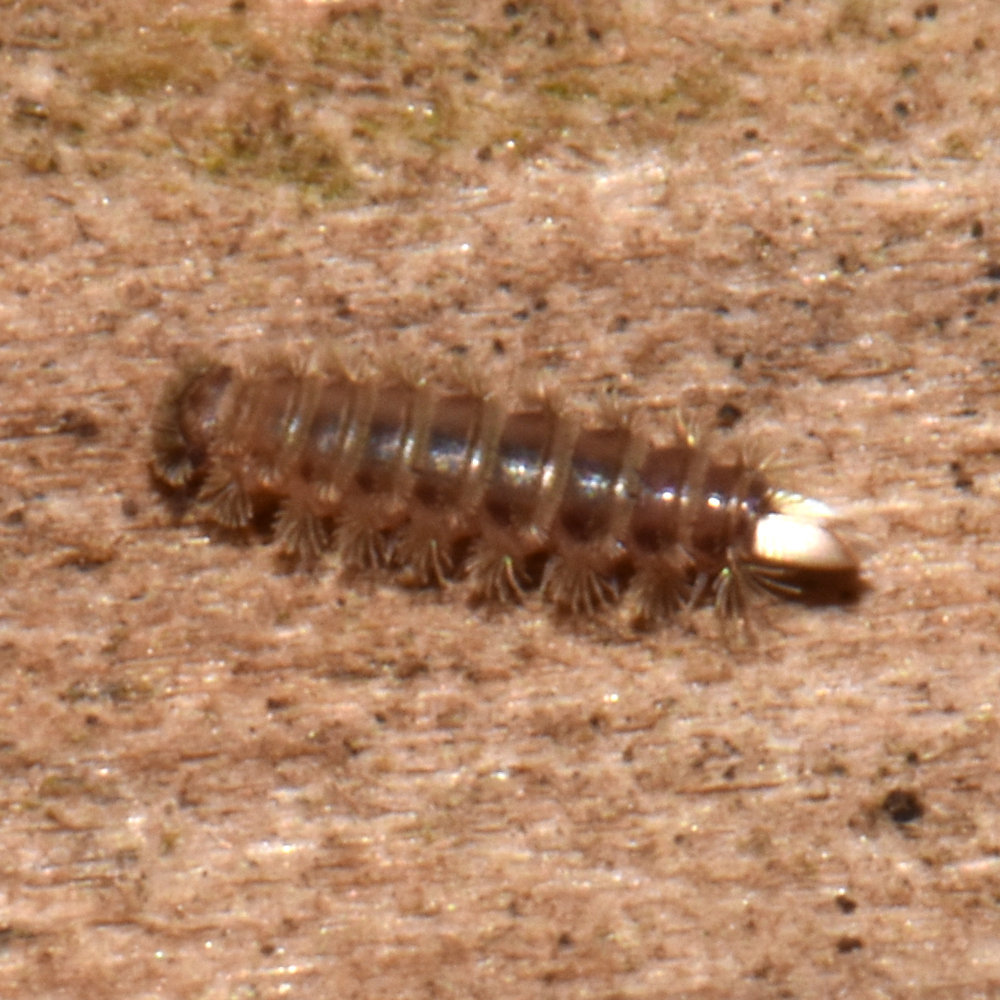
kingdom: Animalia
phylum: Arthropoda
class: Diplopoda
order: Polyxenida
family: Polyxenidae
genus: Polyxenus
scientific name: Polyxenus lagurus
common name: Bristly millipede
